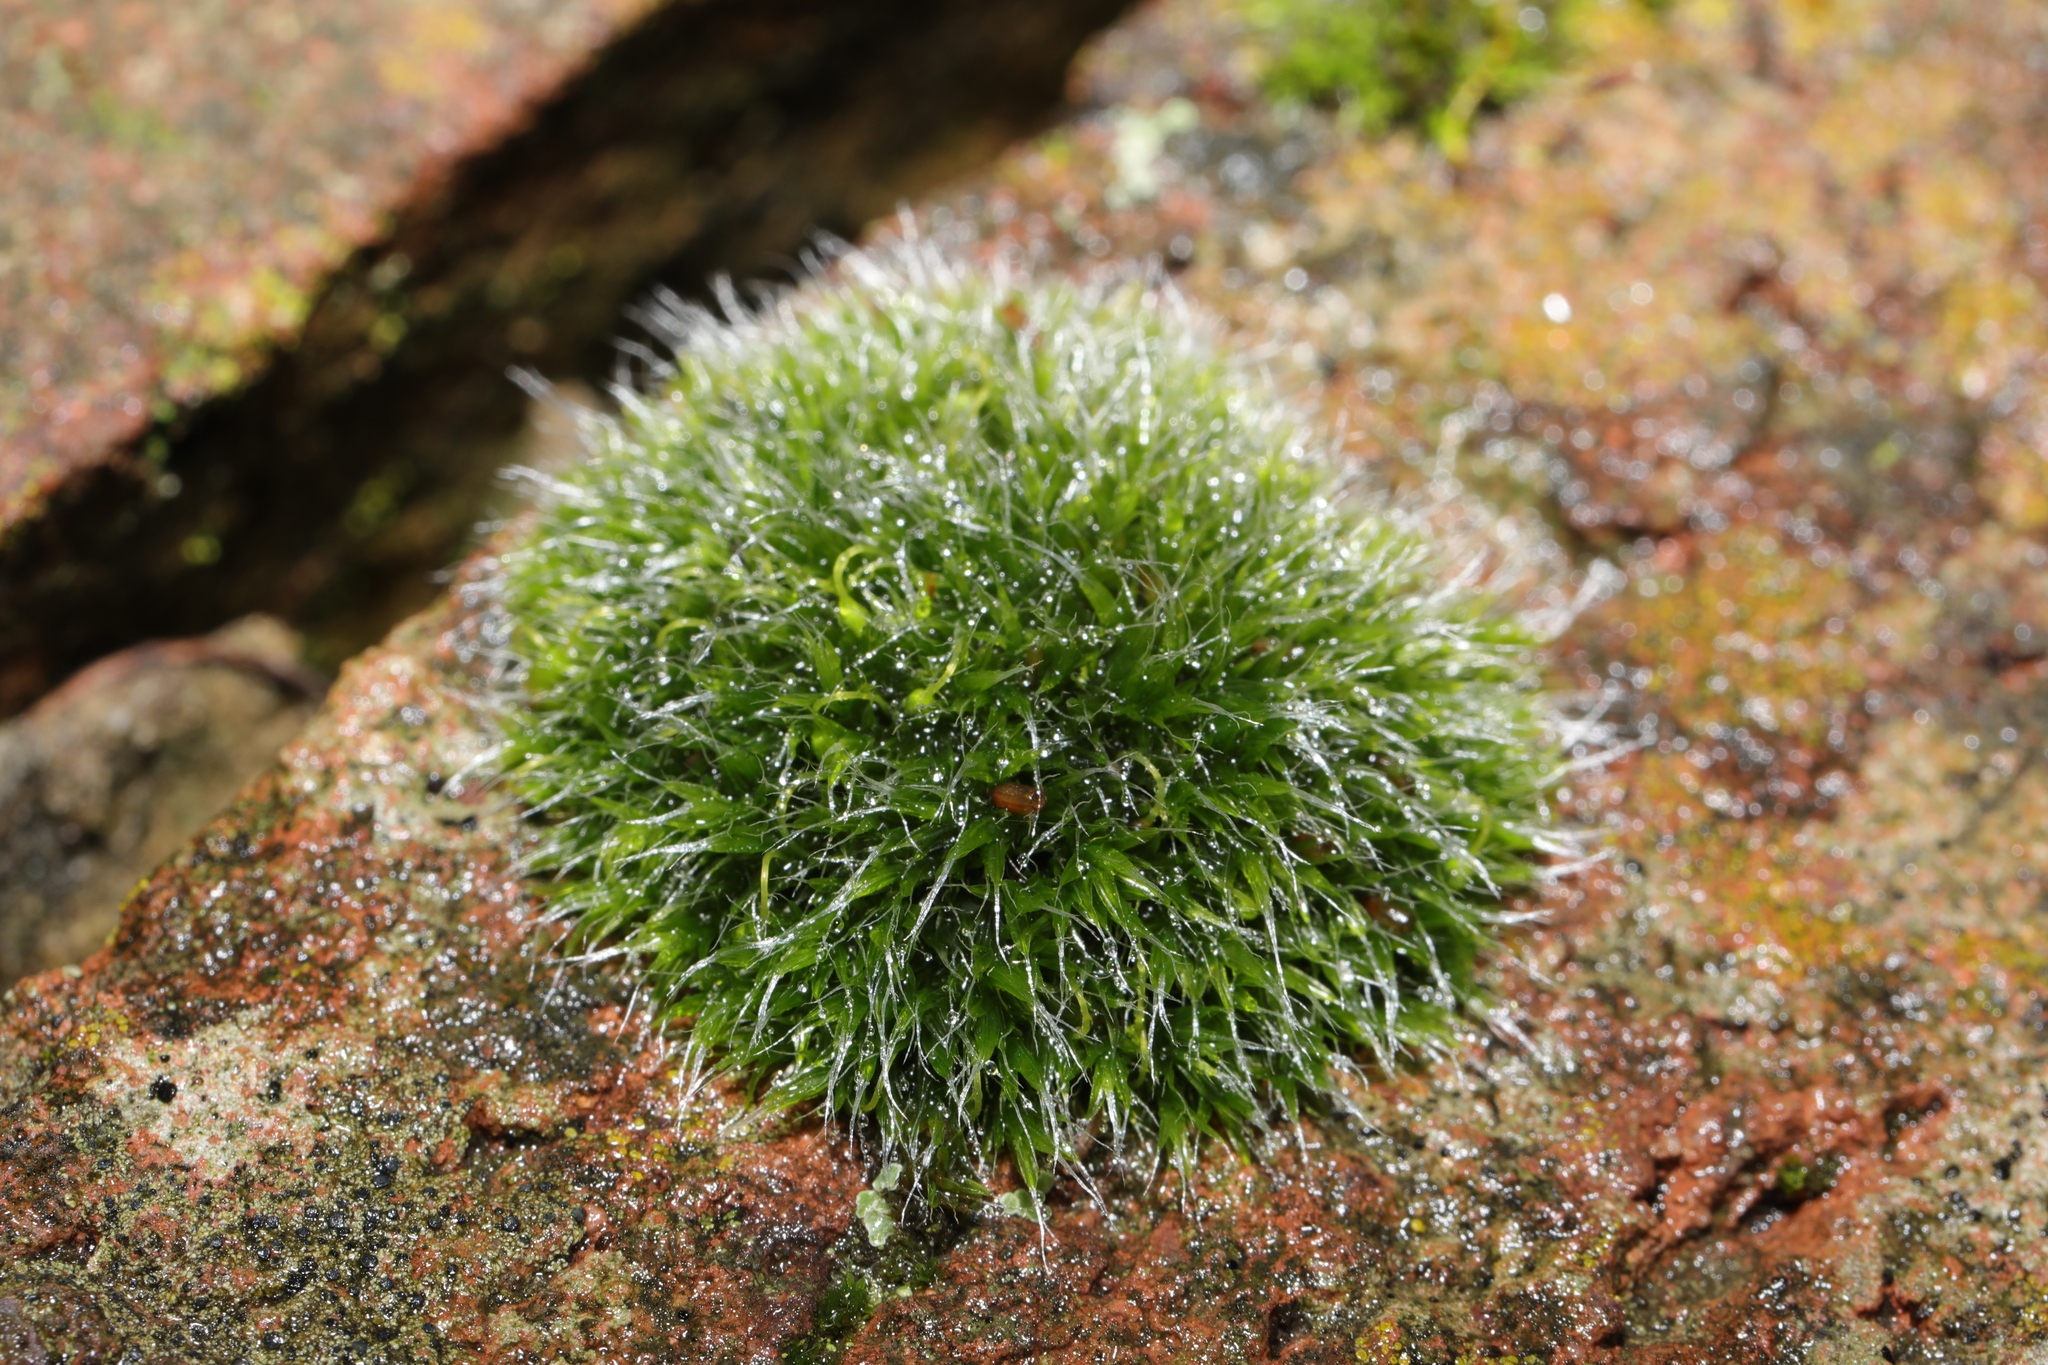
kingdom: Plantae
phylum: Bryophyta
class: Bryopsida
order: Grimmiales
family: Grimmiaceae
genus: Grimmia
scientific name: Grimmia pulvinata
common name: Grey-cushioned grimmia
